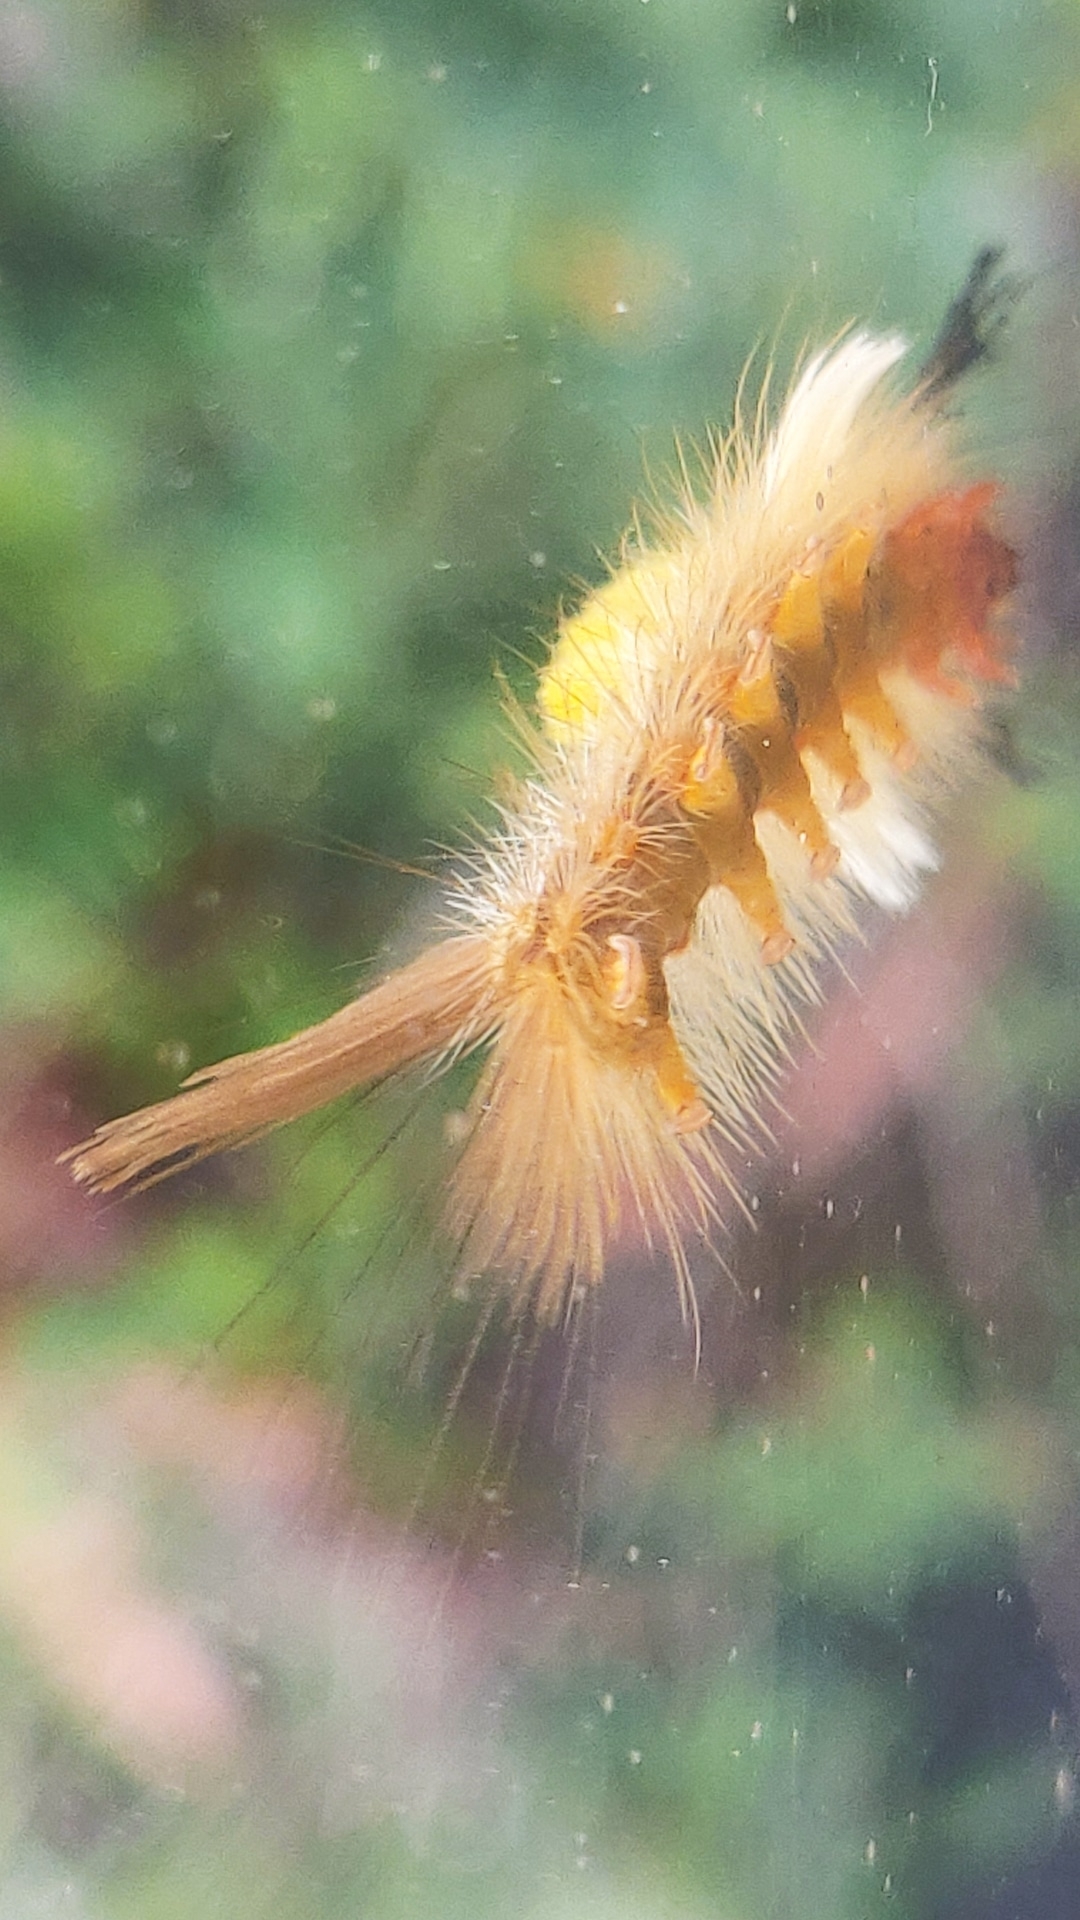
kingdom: Animalia
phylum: Arthropoda
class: Insecta
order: Lepidoptera
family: Erebidae
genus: Orgyia
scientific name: Orgyia postica
